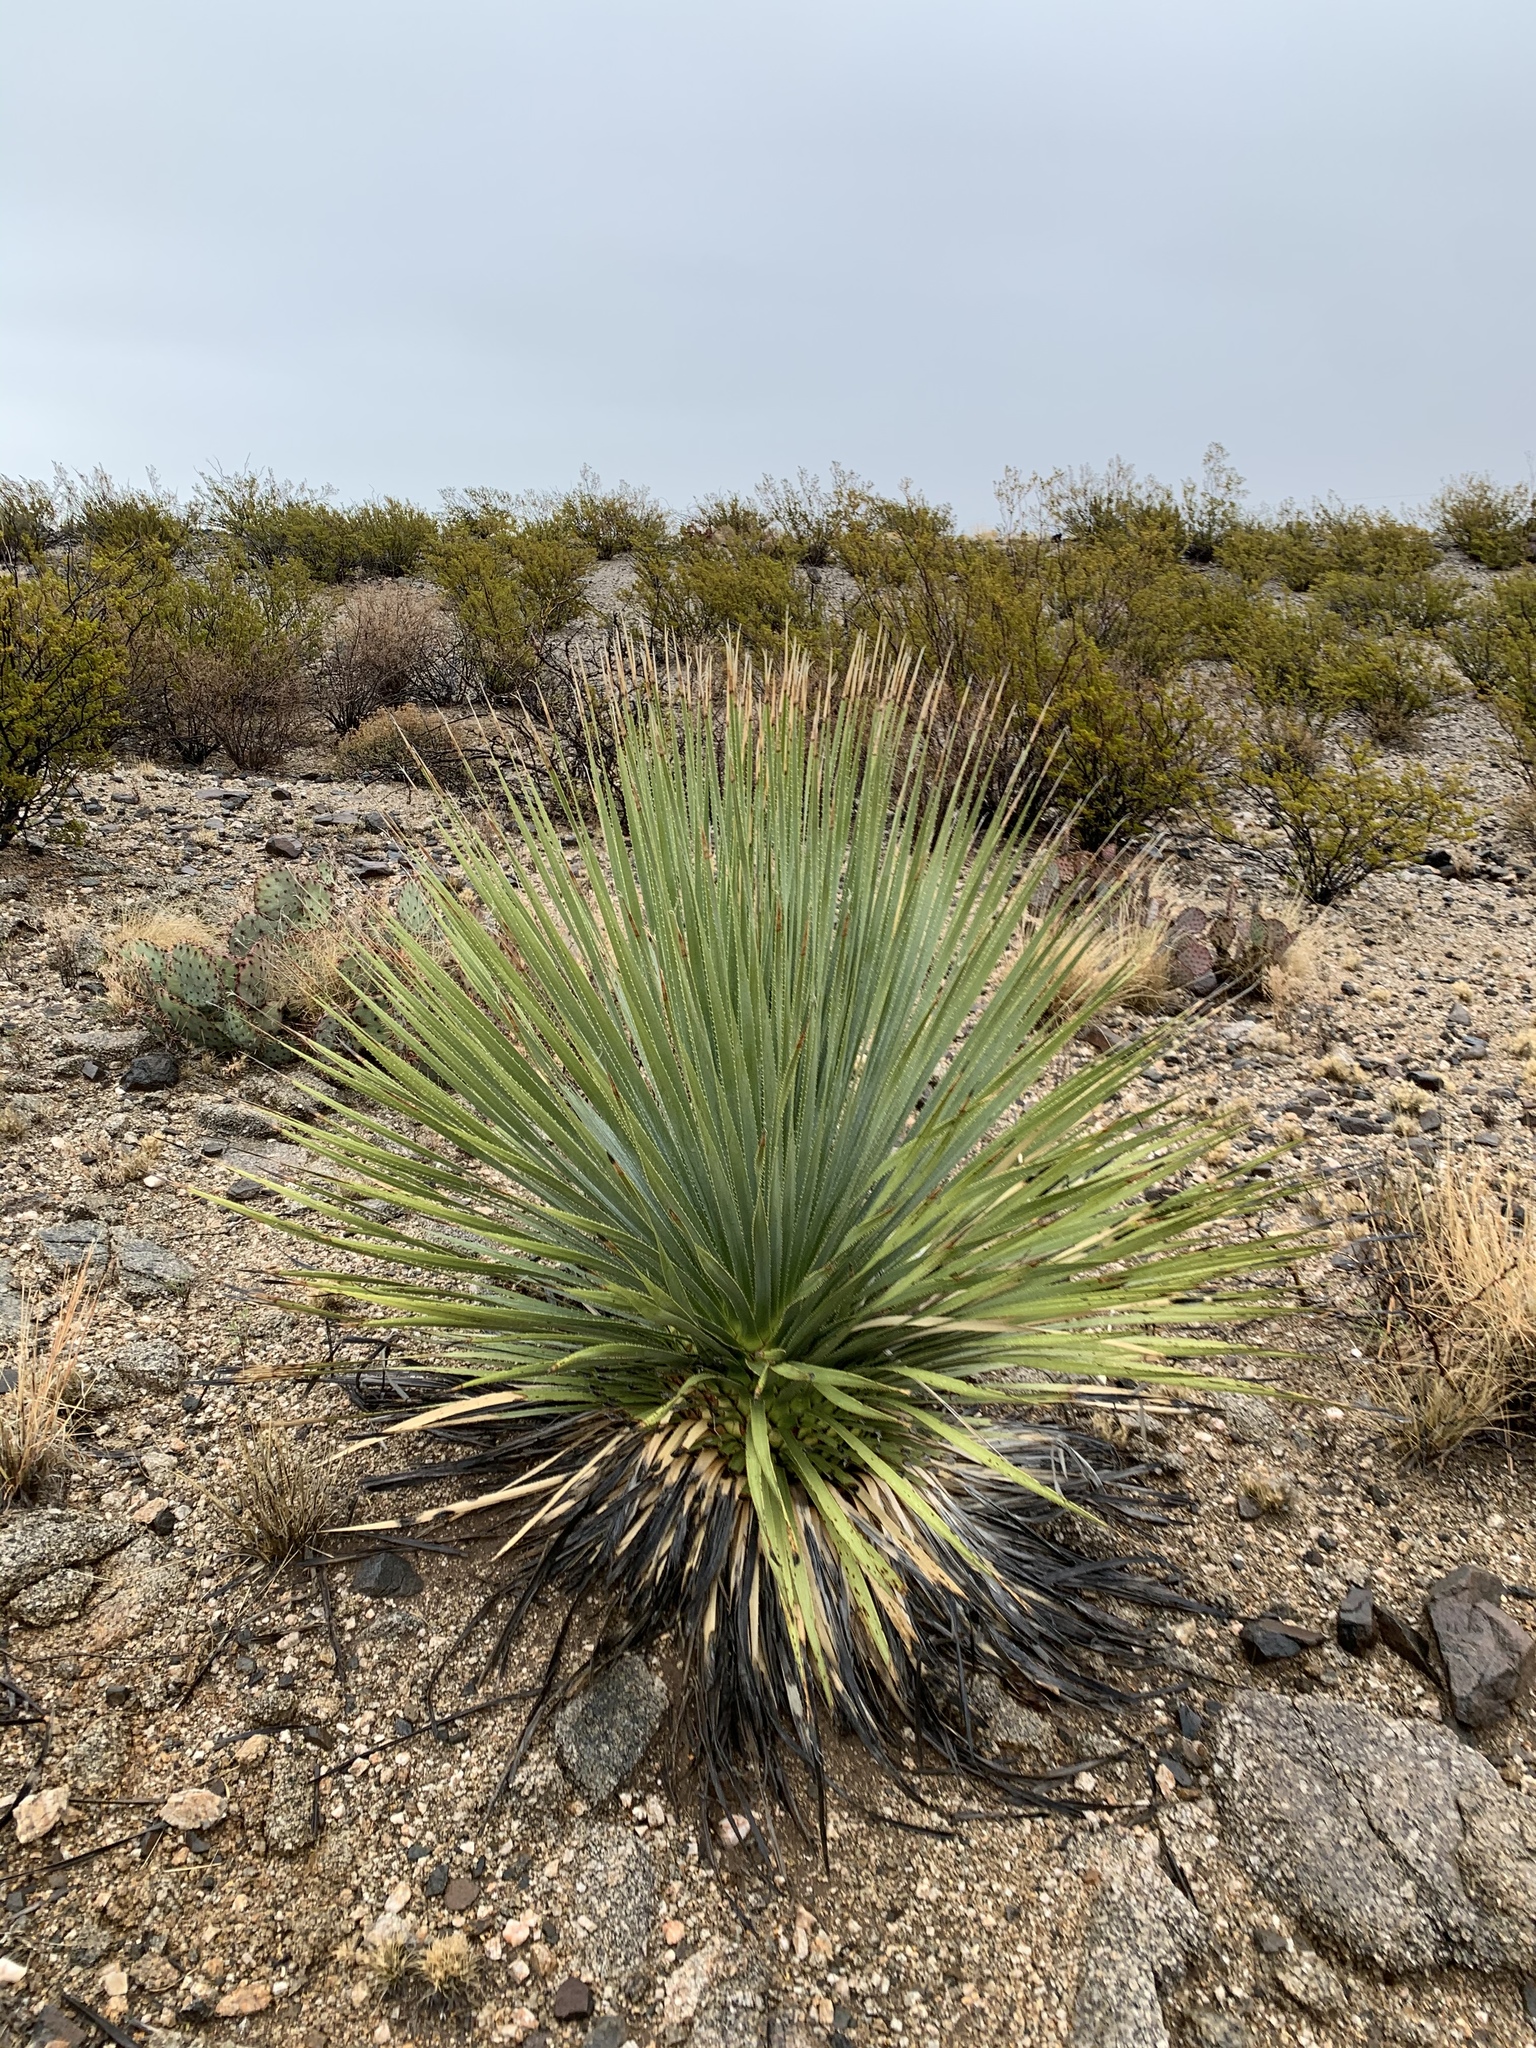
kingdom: Plantae
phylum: Tracheophyta
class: Liliopsida
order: Asparagales
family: Asparagaceae
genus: Dasylirion
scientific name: Dasylirion wheeleri
